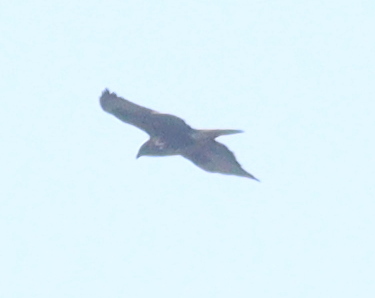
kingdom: Animalia
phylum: Chordata
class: Aves
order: Accipitriformes
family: Accipitridae
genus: Buteo
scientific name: Buteo buteo
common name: Common buzzard
